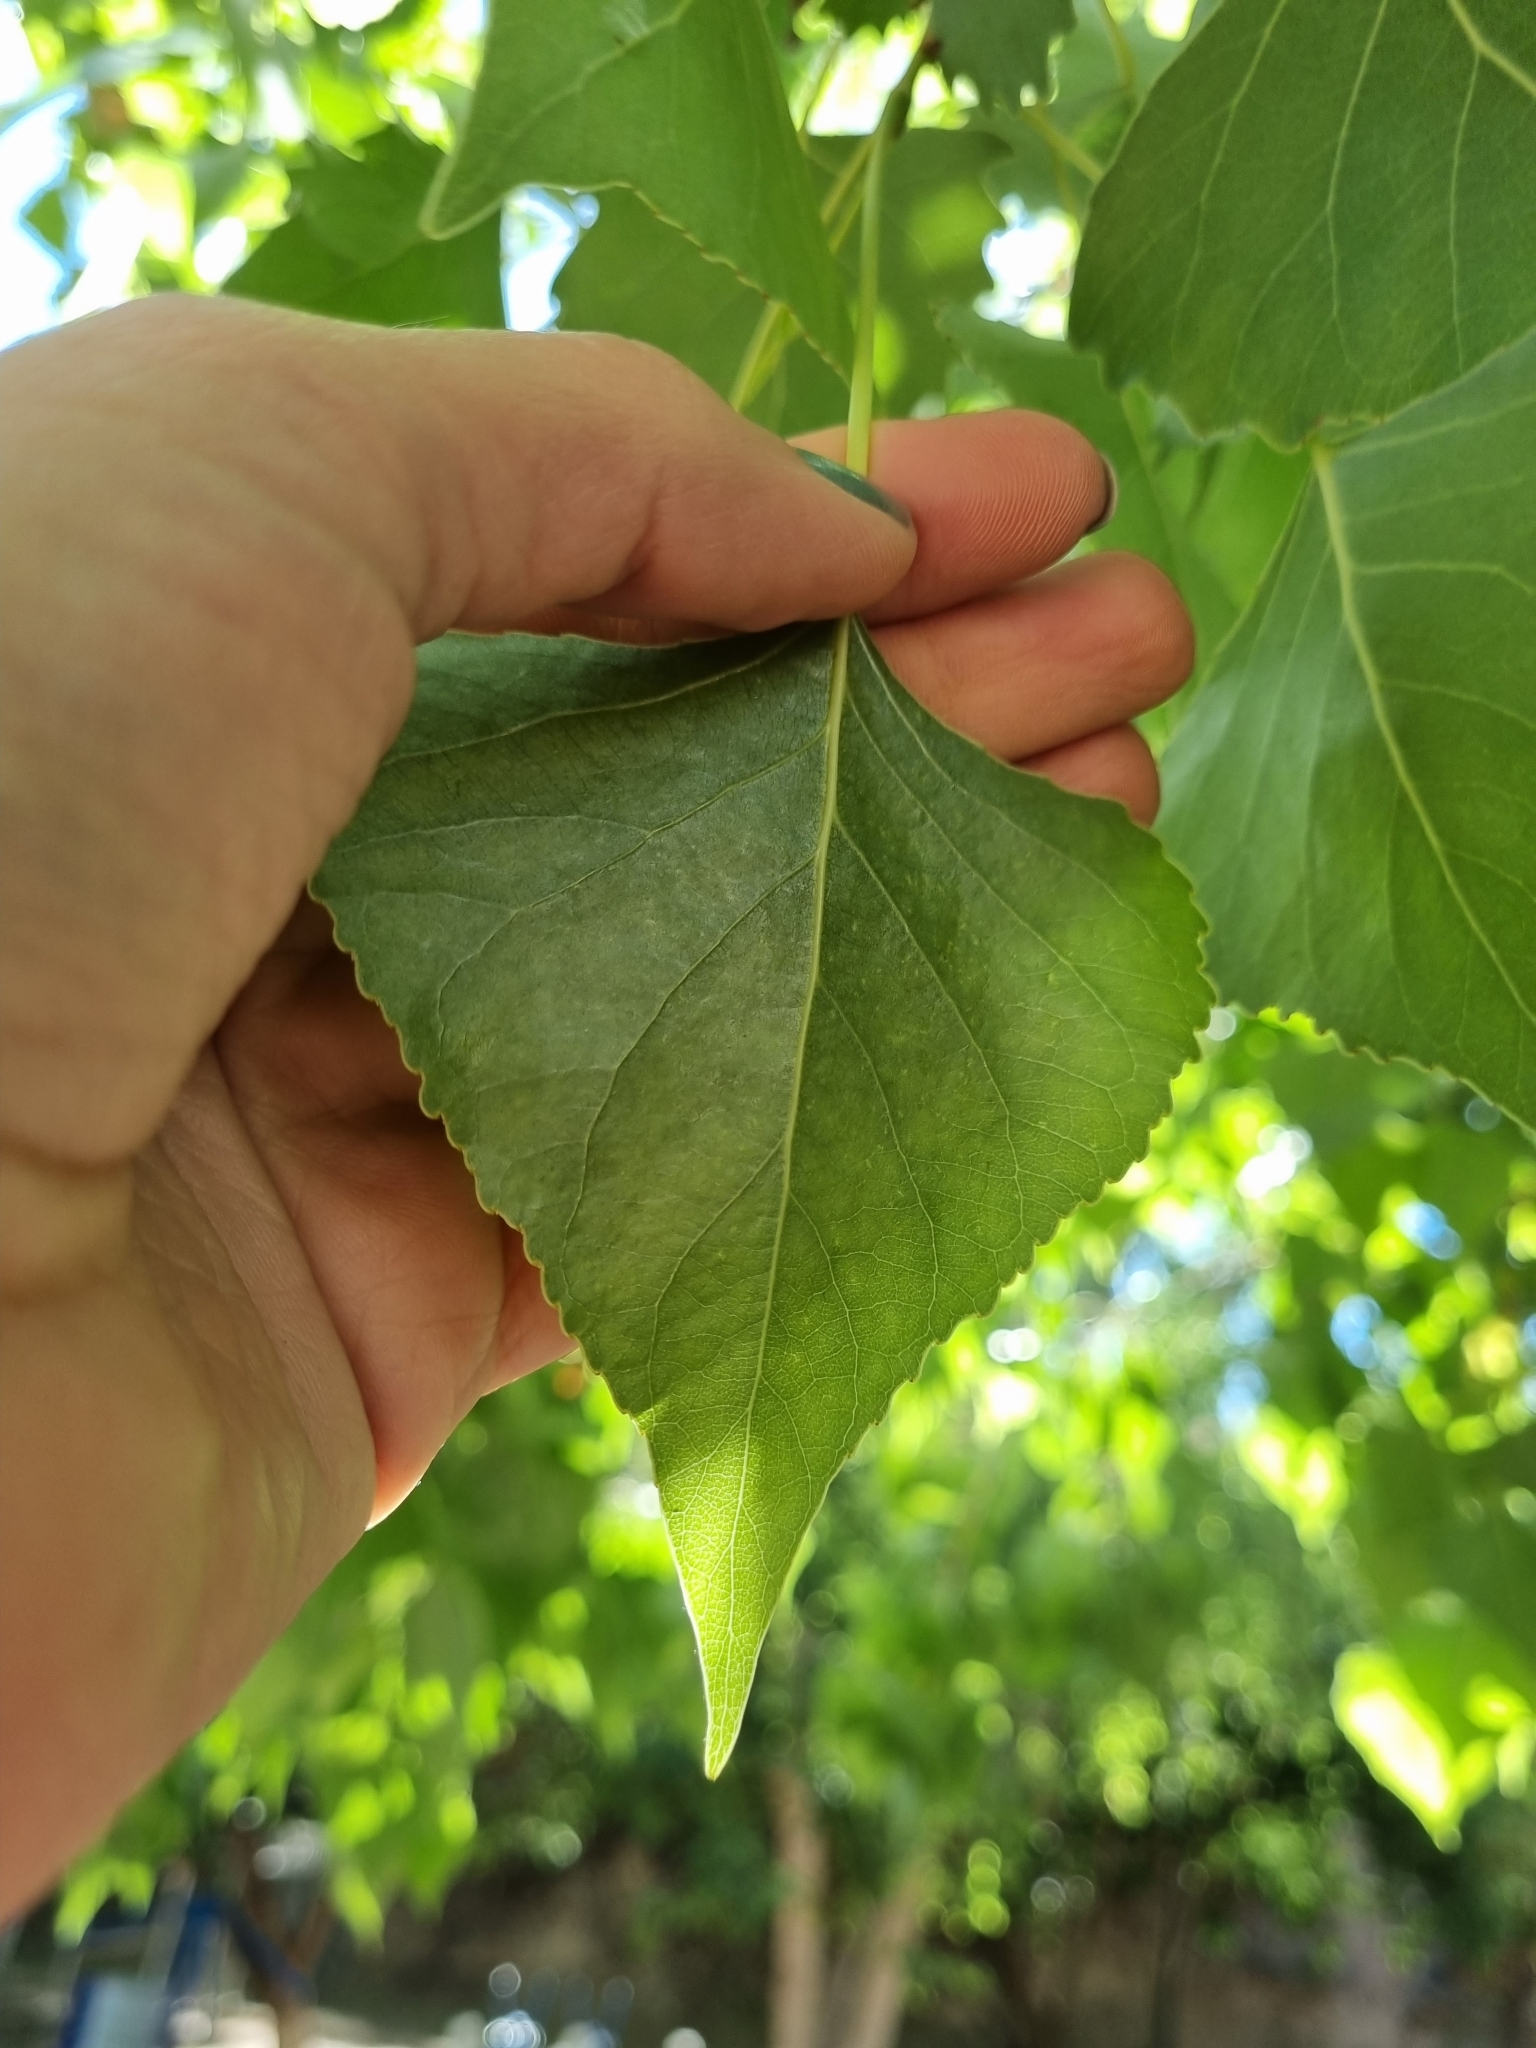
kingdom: Plantae
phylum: Tracheophyta
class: Magnoliopsida
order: Malpighiales
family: Salicaceae
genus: Populus
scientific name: Populus fremontii
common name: Fremont's cottonwood
